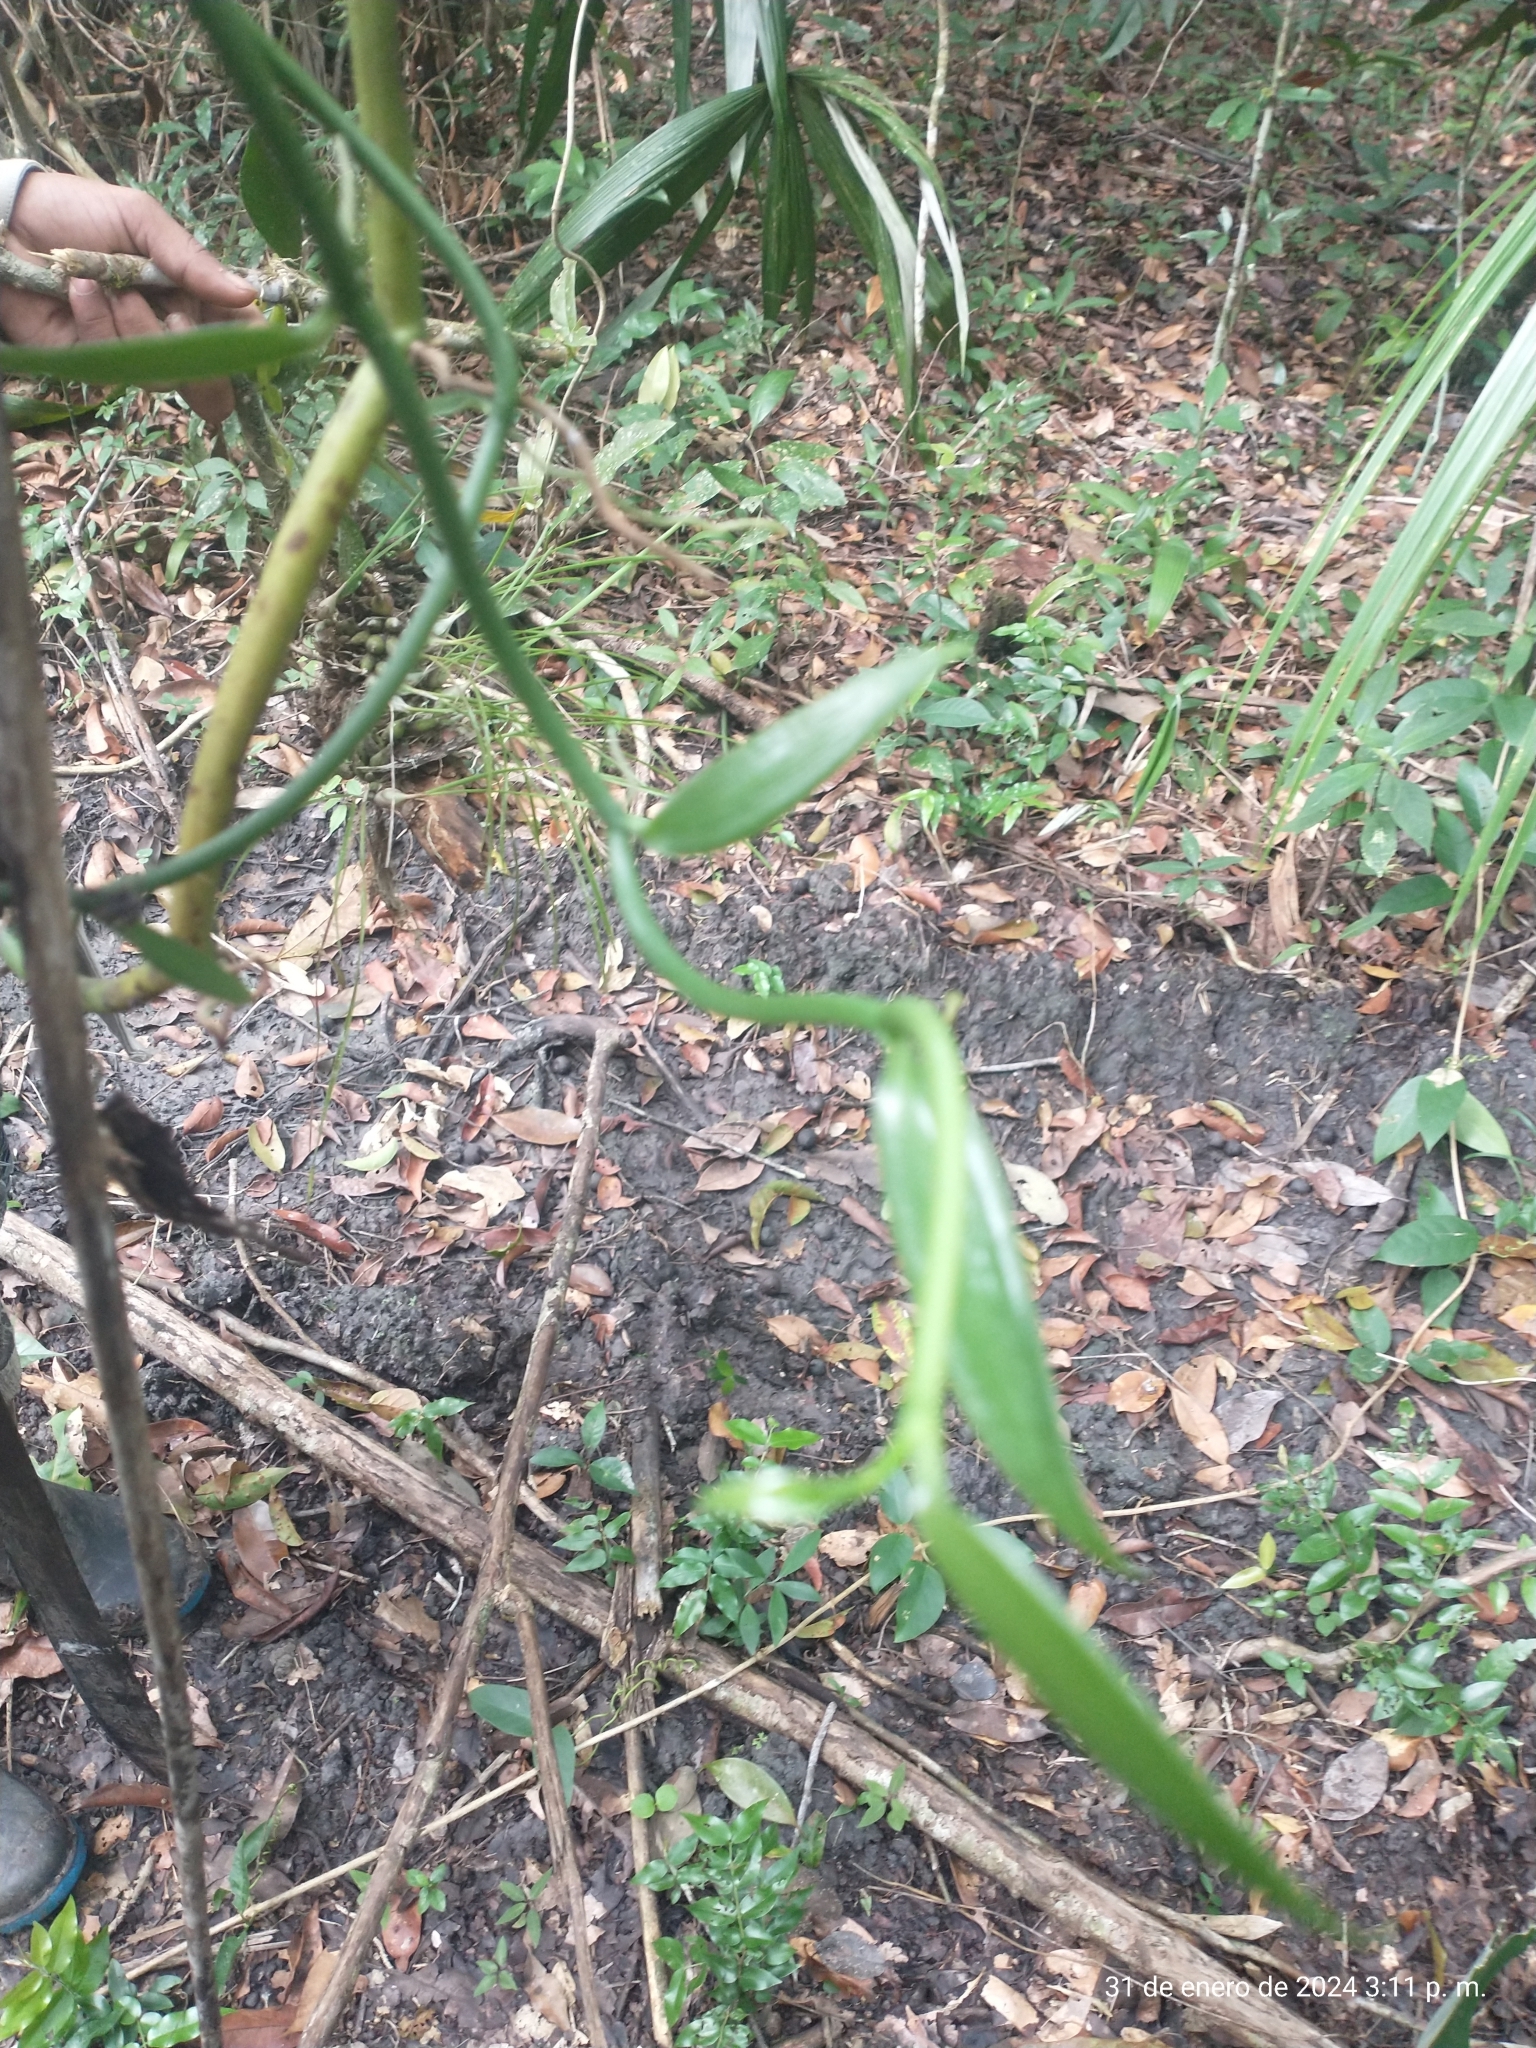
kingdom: Plantae
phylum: Tracheophyta
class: Liliopsida
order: Asparagales
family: Orchidaceae
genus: Vanilla
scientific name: Vanilla odorata
